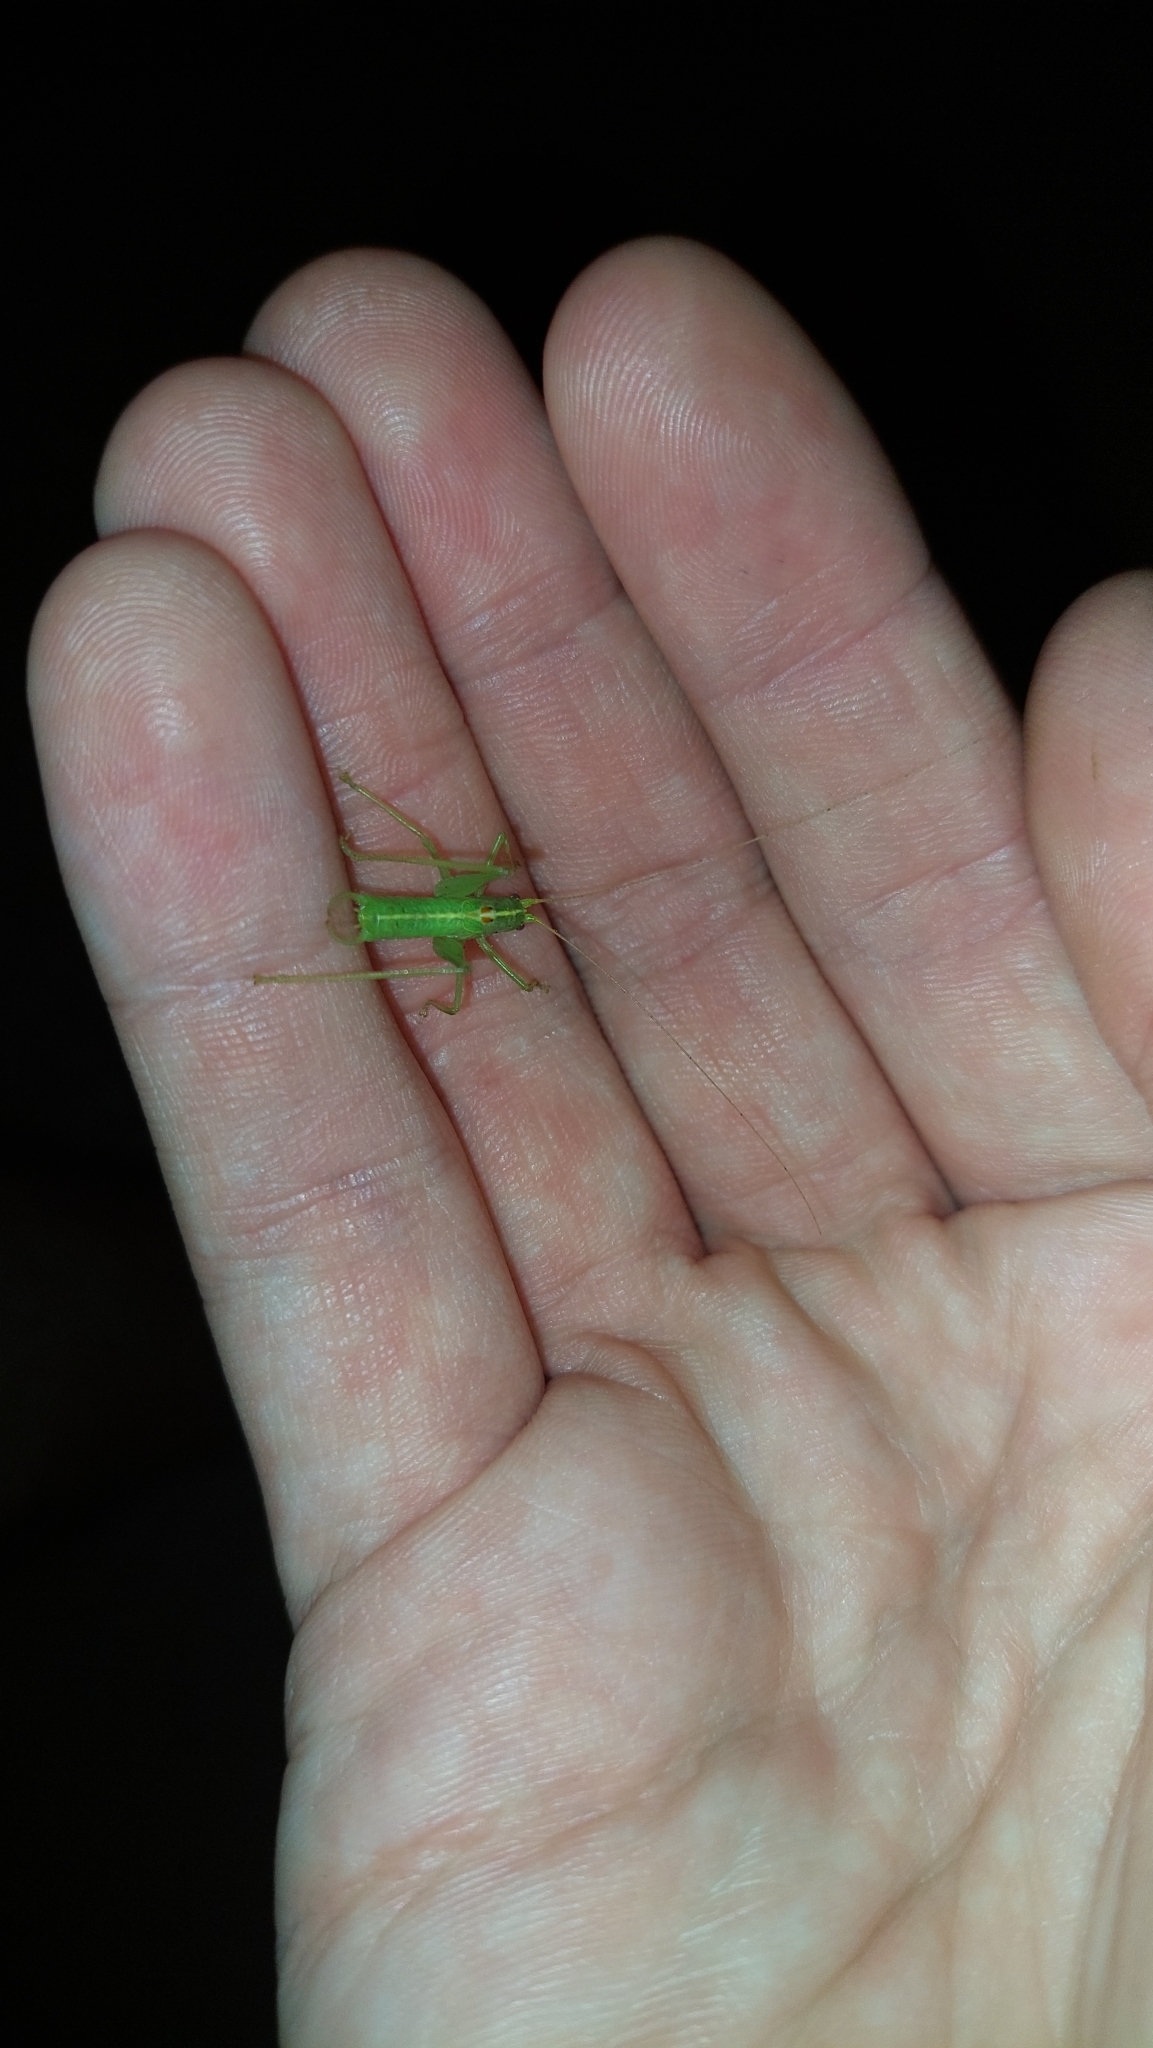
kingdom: Animalia
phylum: Arthropoda
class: Insecta
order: Orthoptera
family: Tettigoniidae
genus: Meconema
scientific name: Meconema meridionale
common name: Southern oak bush-cricket
